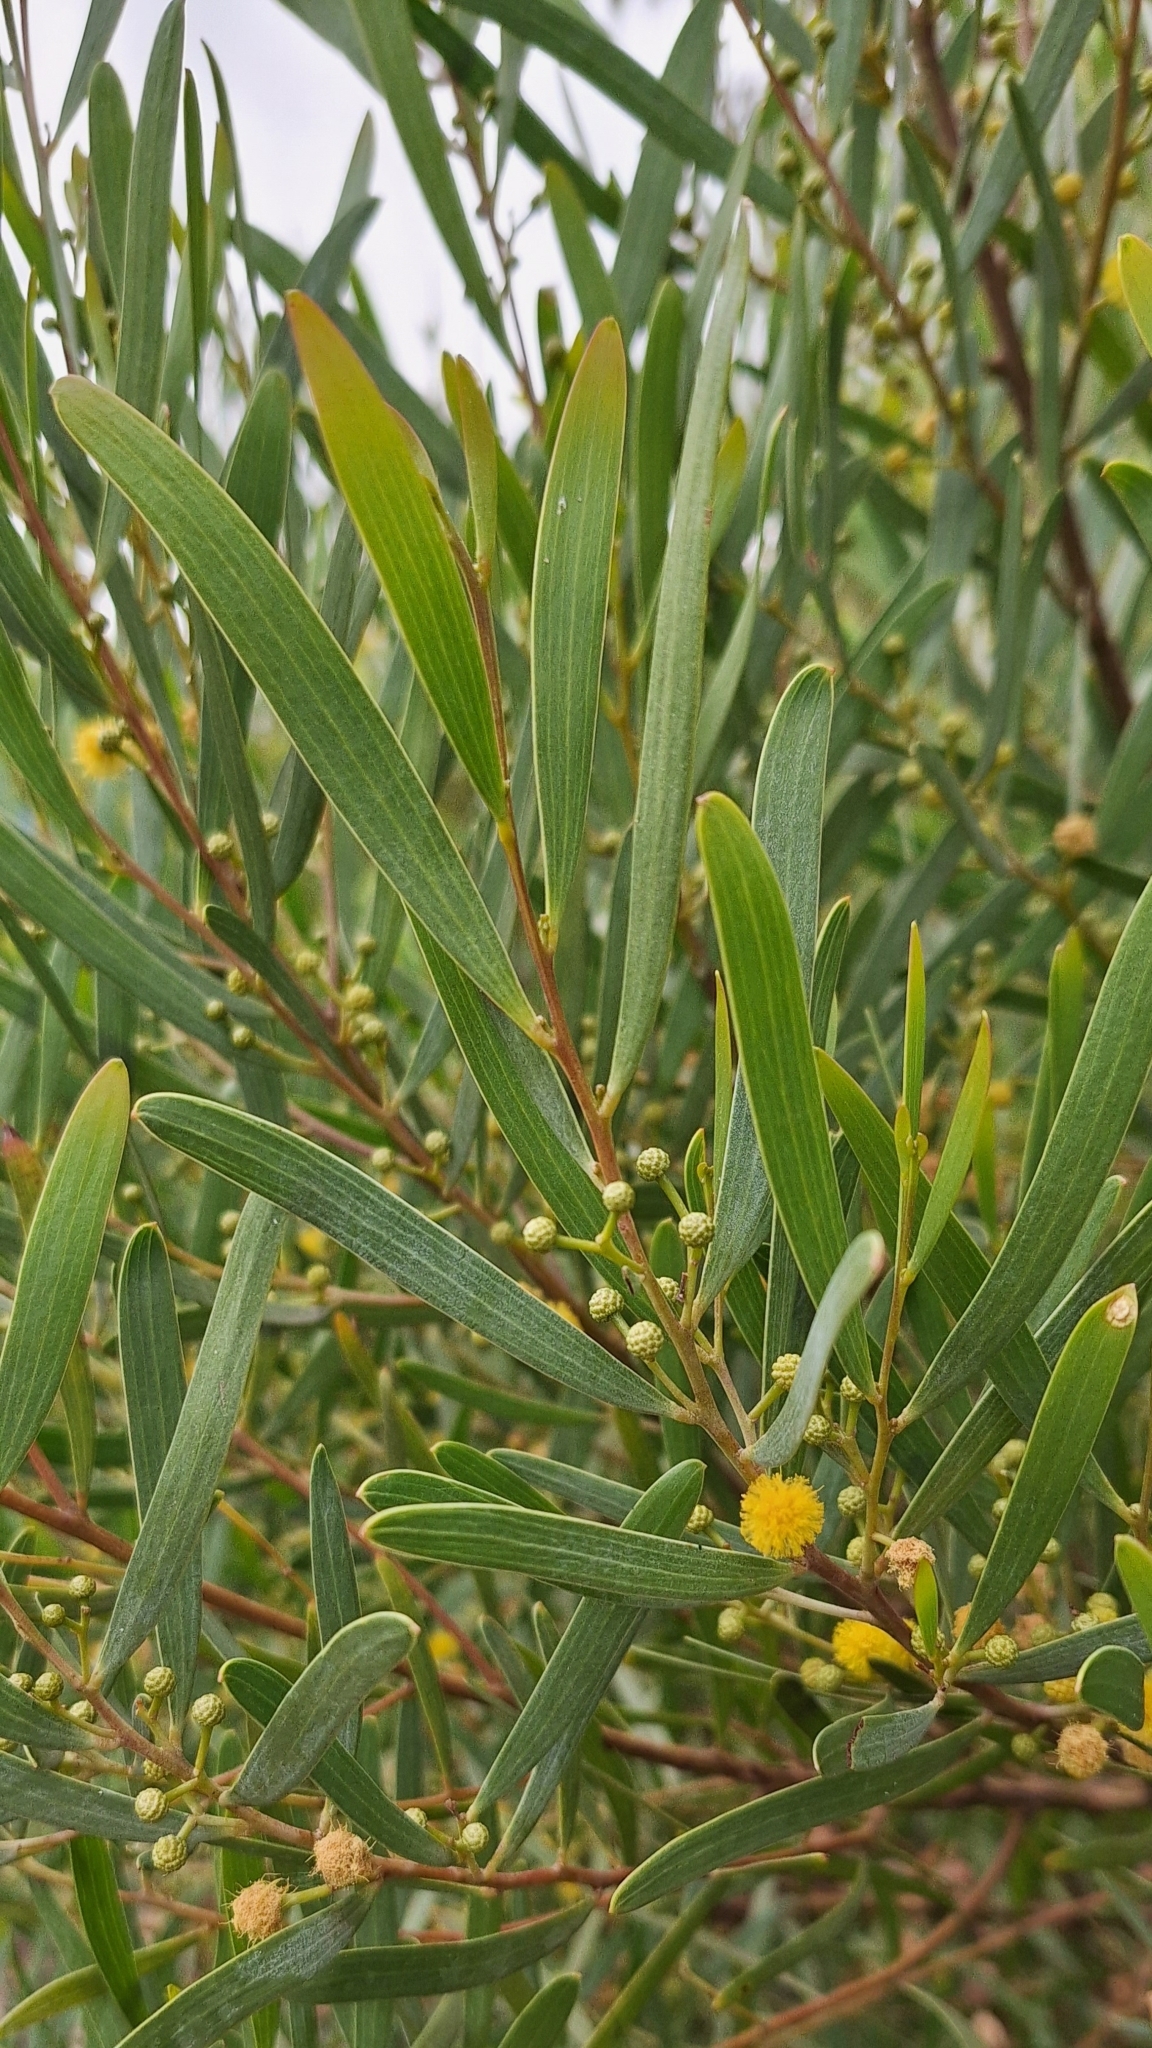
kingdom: Plantae
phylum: Tracheophyta
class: Magnoliopsida
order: Fabales
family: Fabaceae
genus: Acacia
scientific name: Acacia cyclops
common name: Coastal wattle
